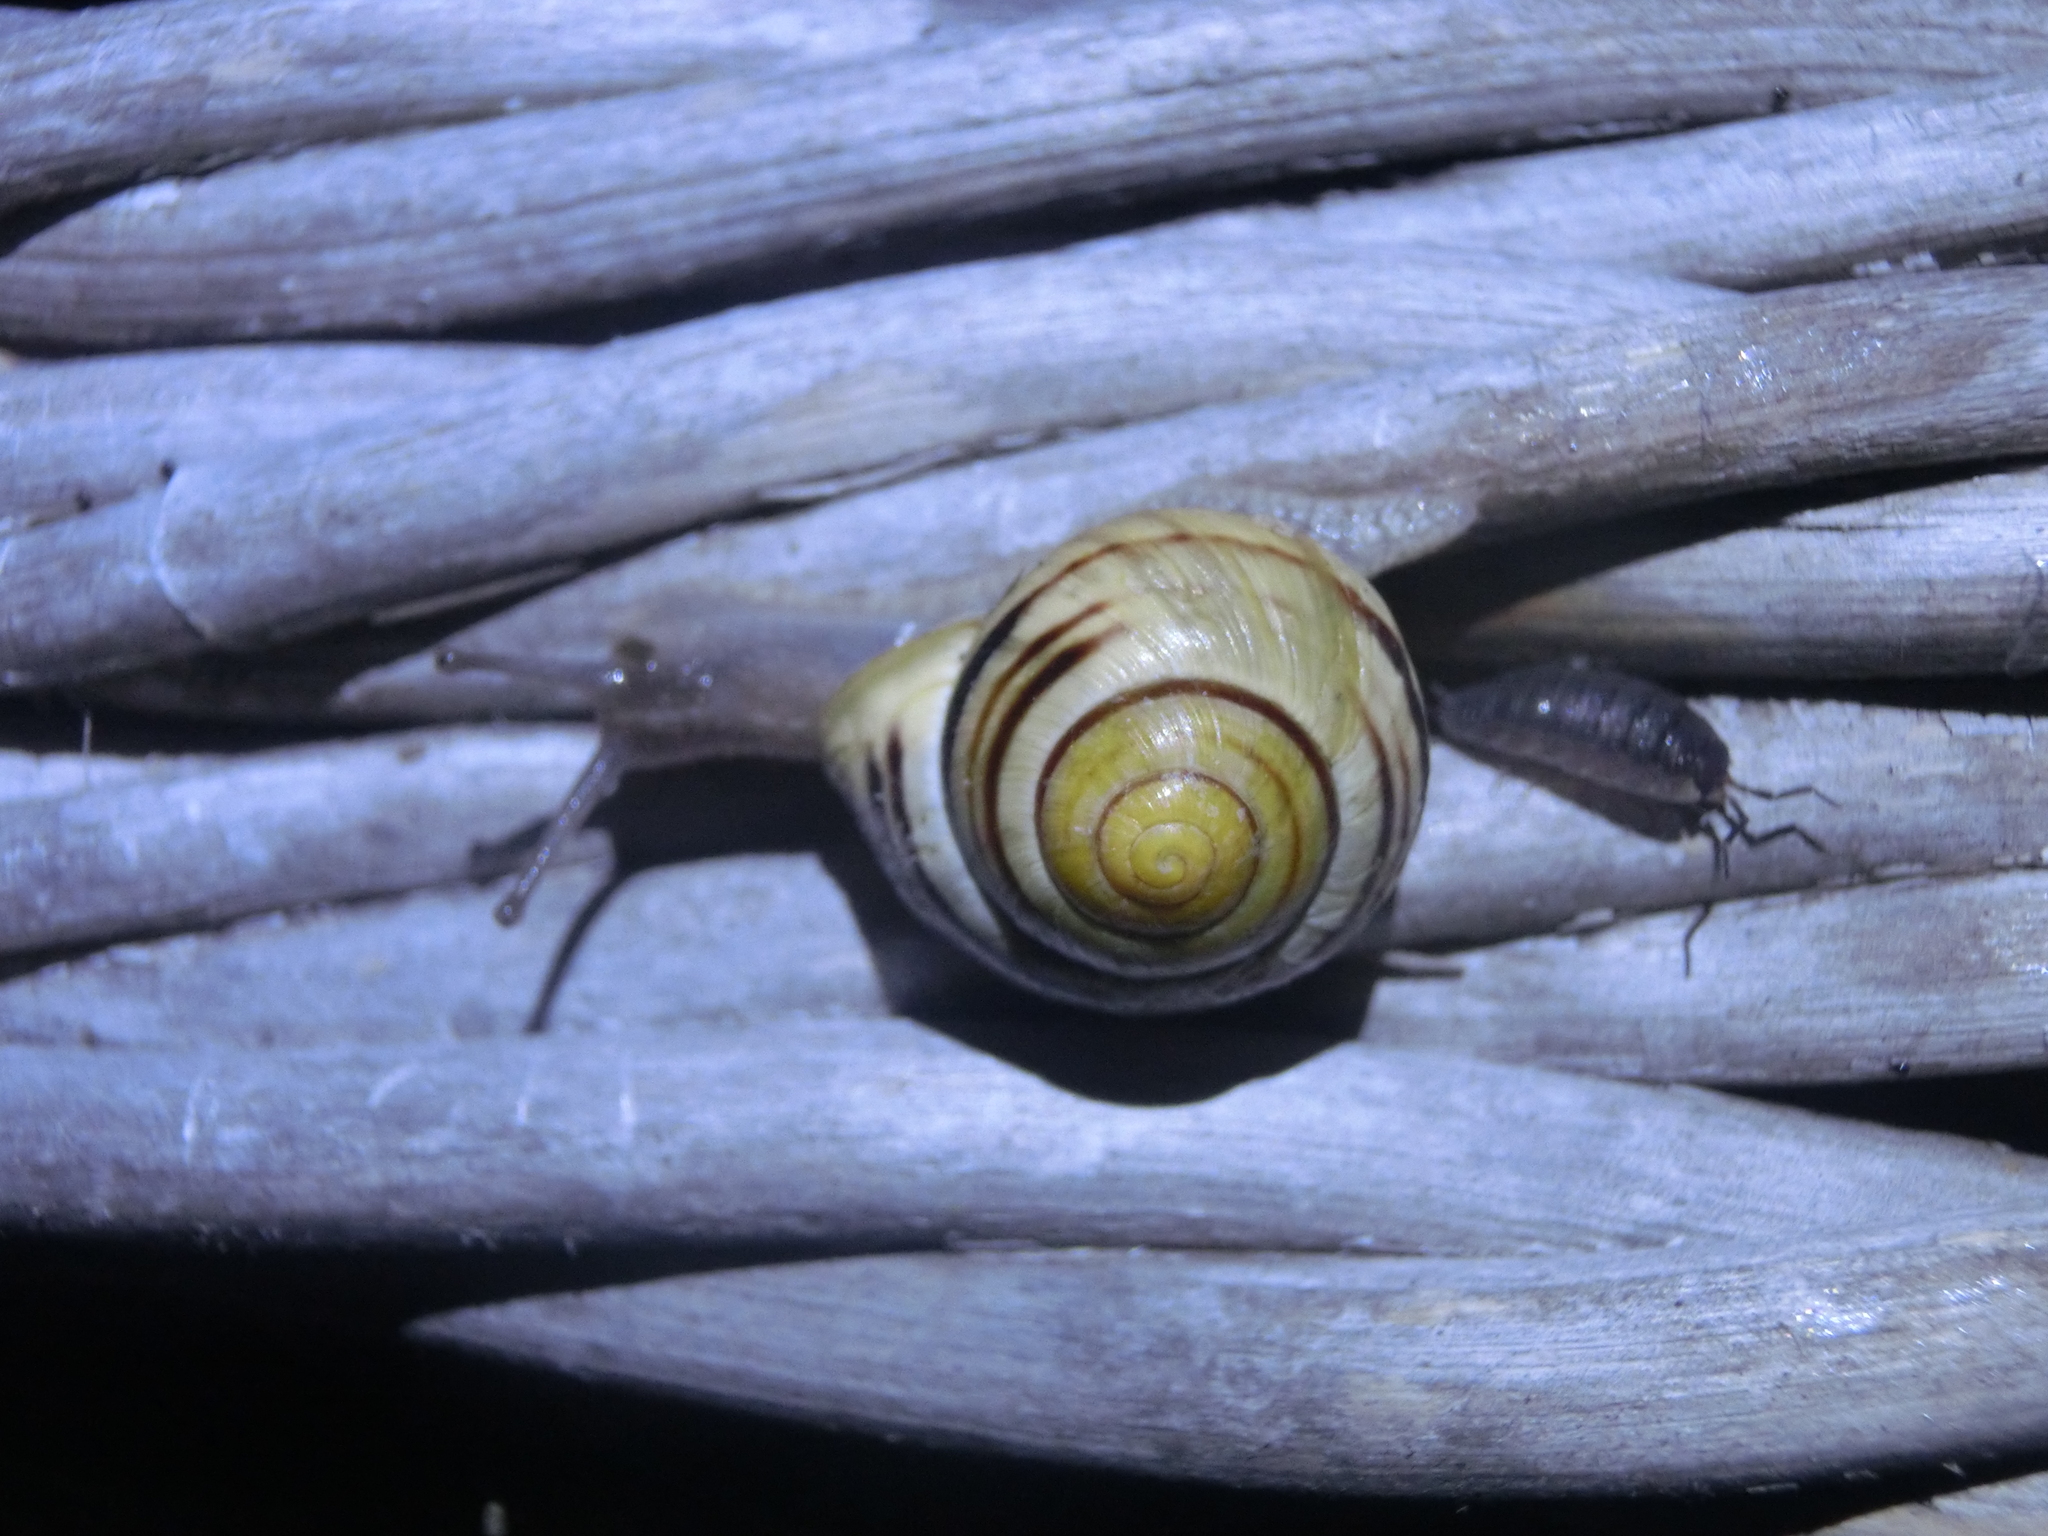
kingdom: Animalia
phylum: Mollusca
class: Gastropoda
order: Stylommatophora
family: Helicidae
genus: Cepaea
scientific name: Cepaea hortensis
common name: White-lip gardensnail
